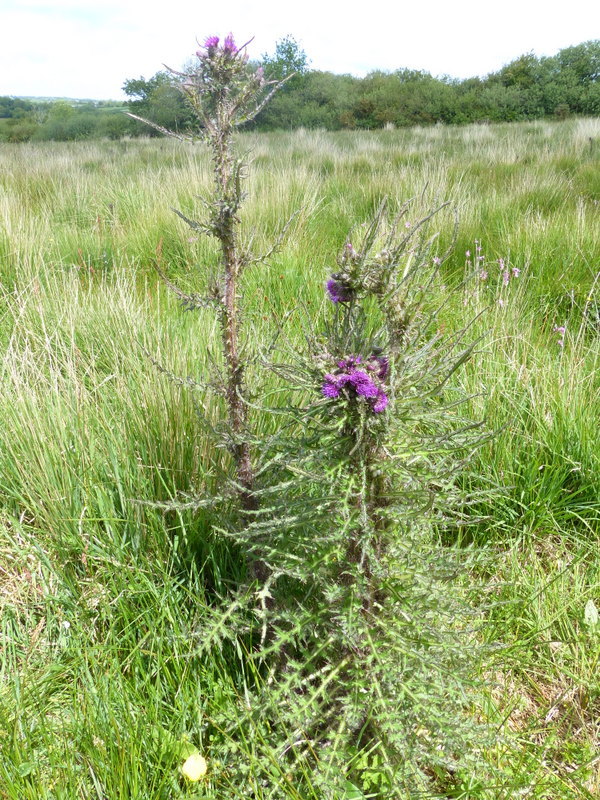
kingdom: Plantae
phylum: Tracheophyta
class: Magnoliopsida
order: Asterales
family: Asteraceae
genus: Cirsium
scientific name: Cirsium palustre
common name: Marsh thistle
